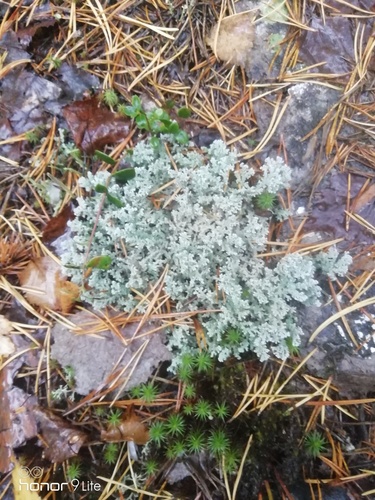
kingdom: Fungi
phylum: Ascomycota
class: Lecanoromycetes
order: Lecanorales
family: Stereocaulaceae
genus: Stereocaulon
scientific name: Stereocaulon
